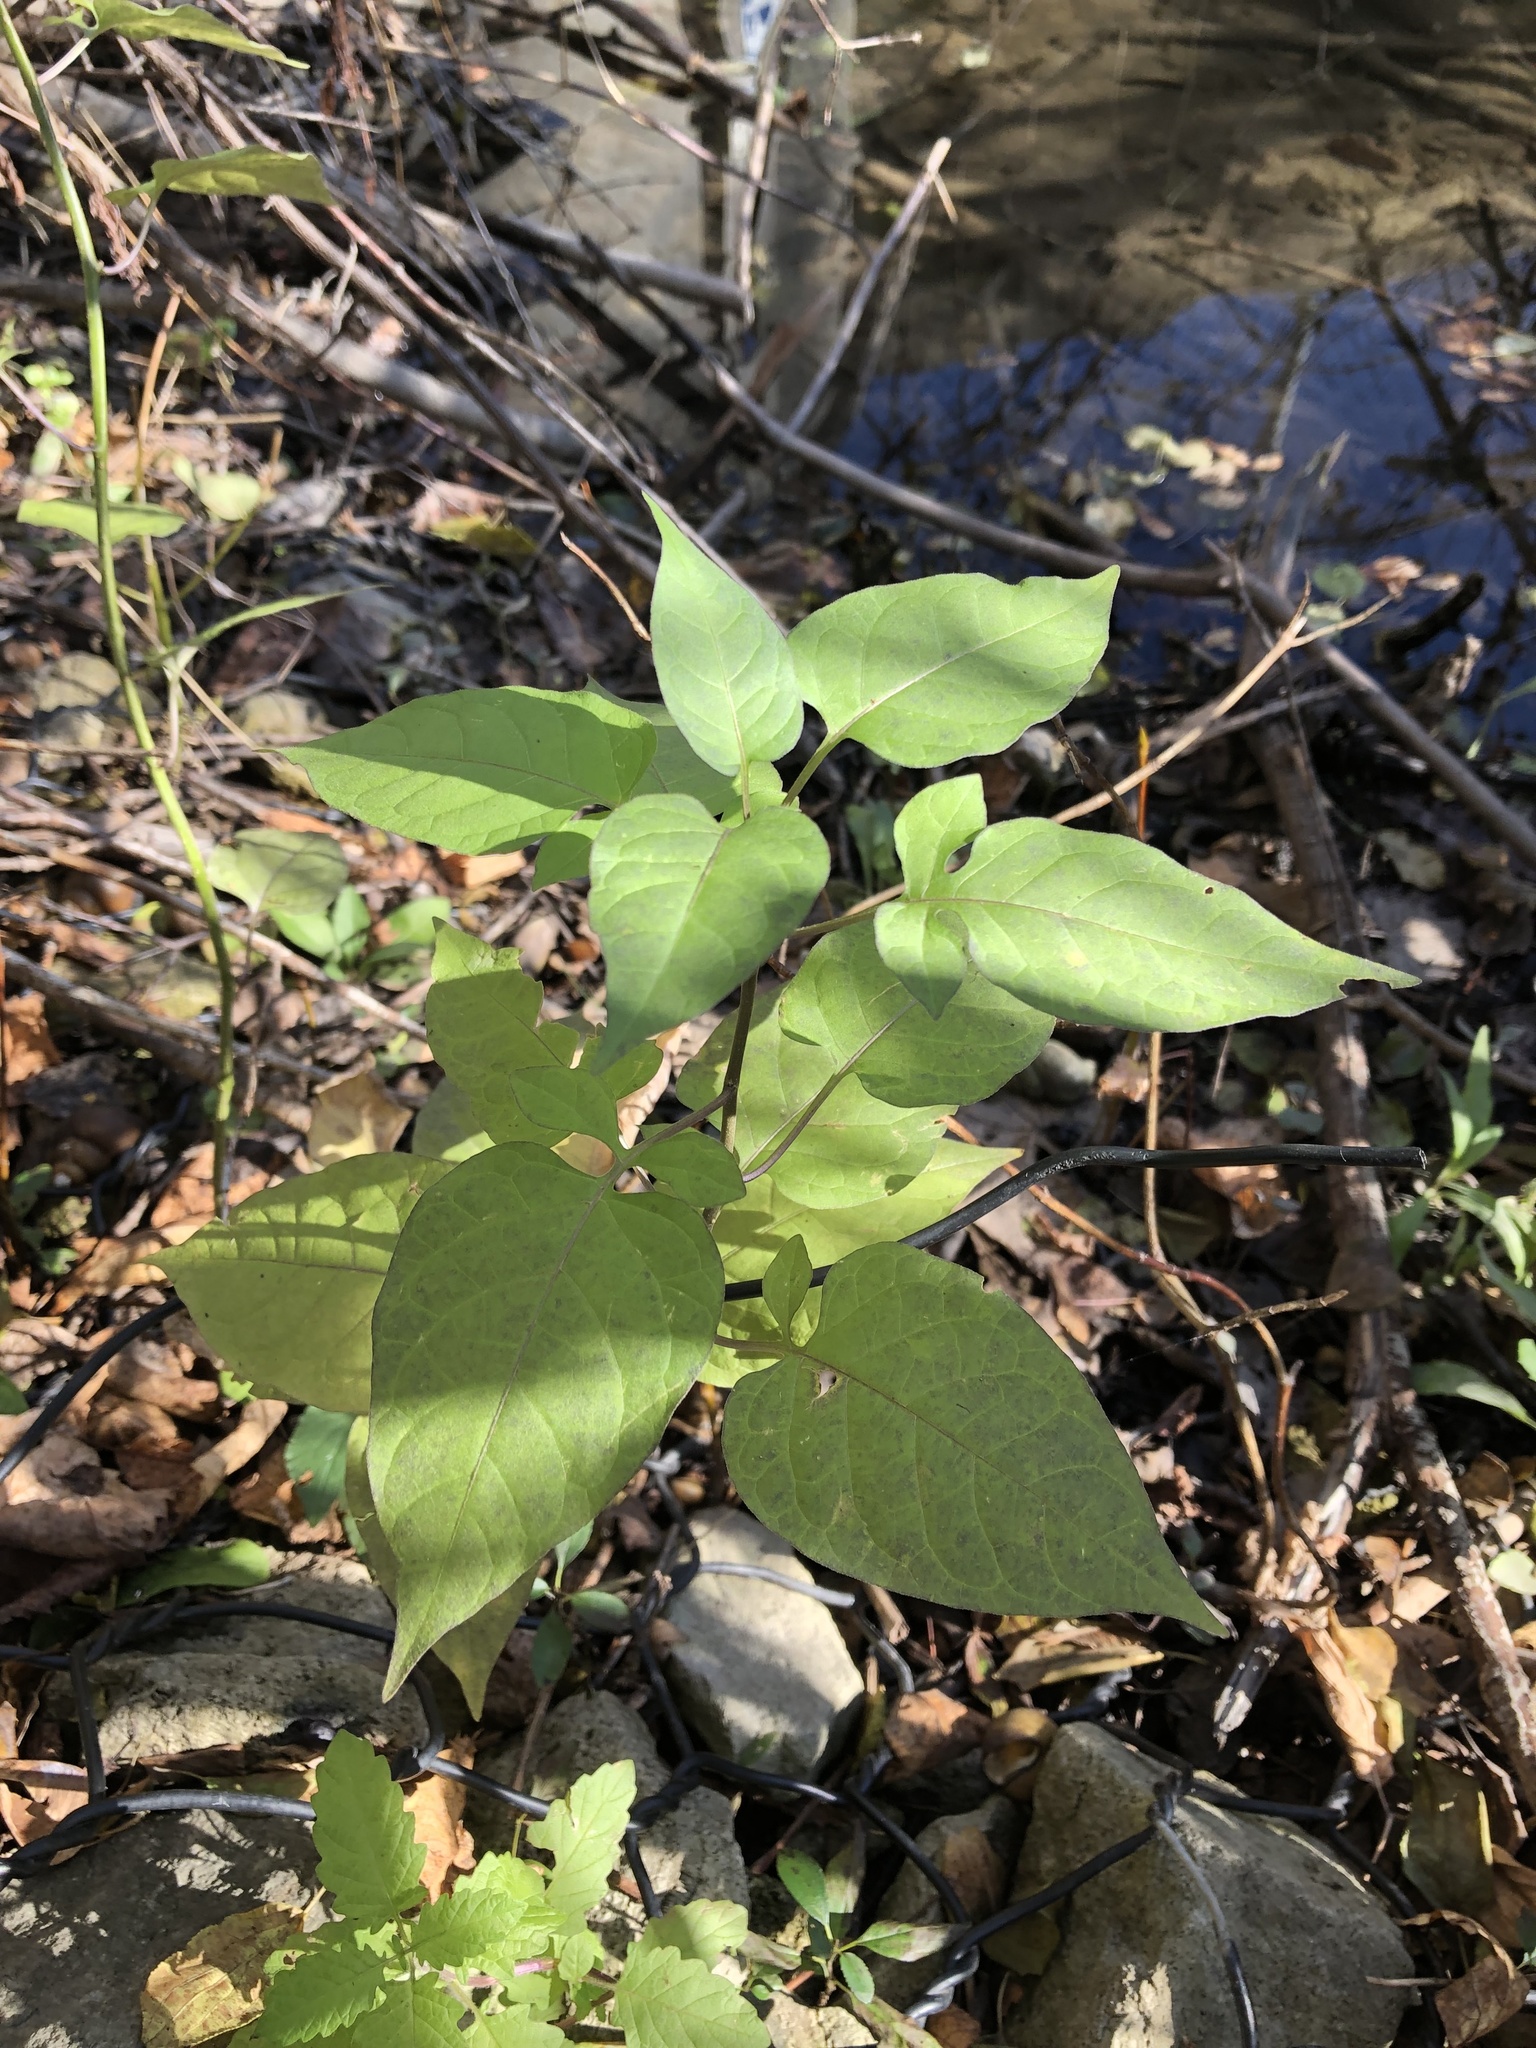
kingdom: Plantae
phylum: Tracheophyta
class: Magnoliopsida
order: Solanales
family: Solanaceae
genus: Solanum
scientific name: Solanum dulcamara
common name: Climbing nightshade
